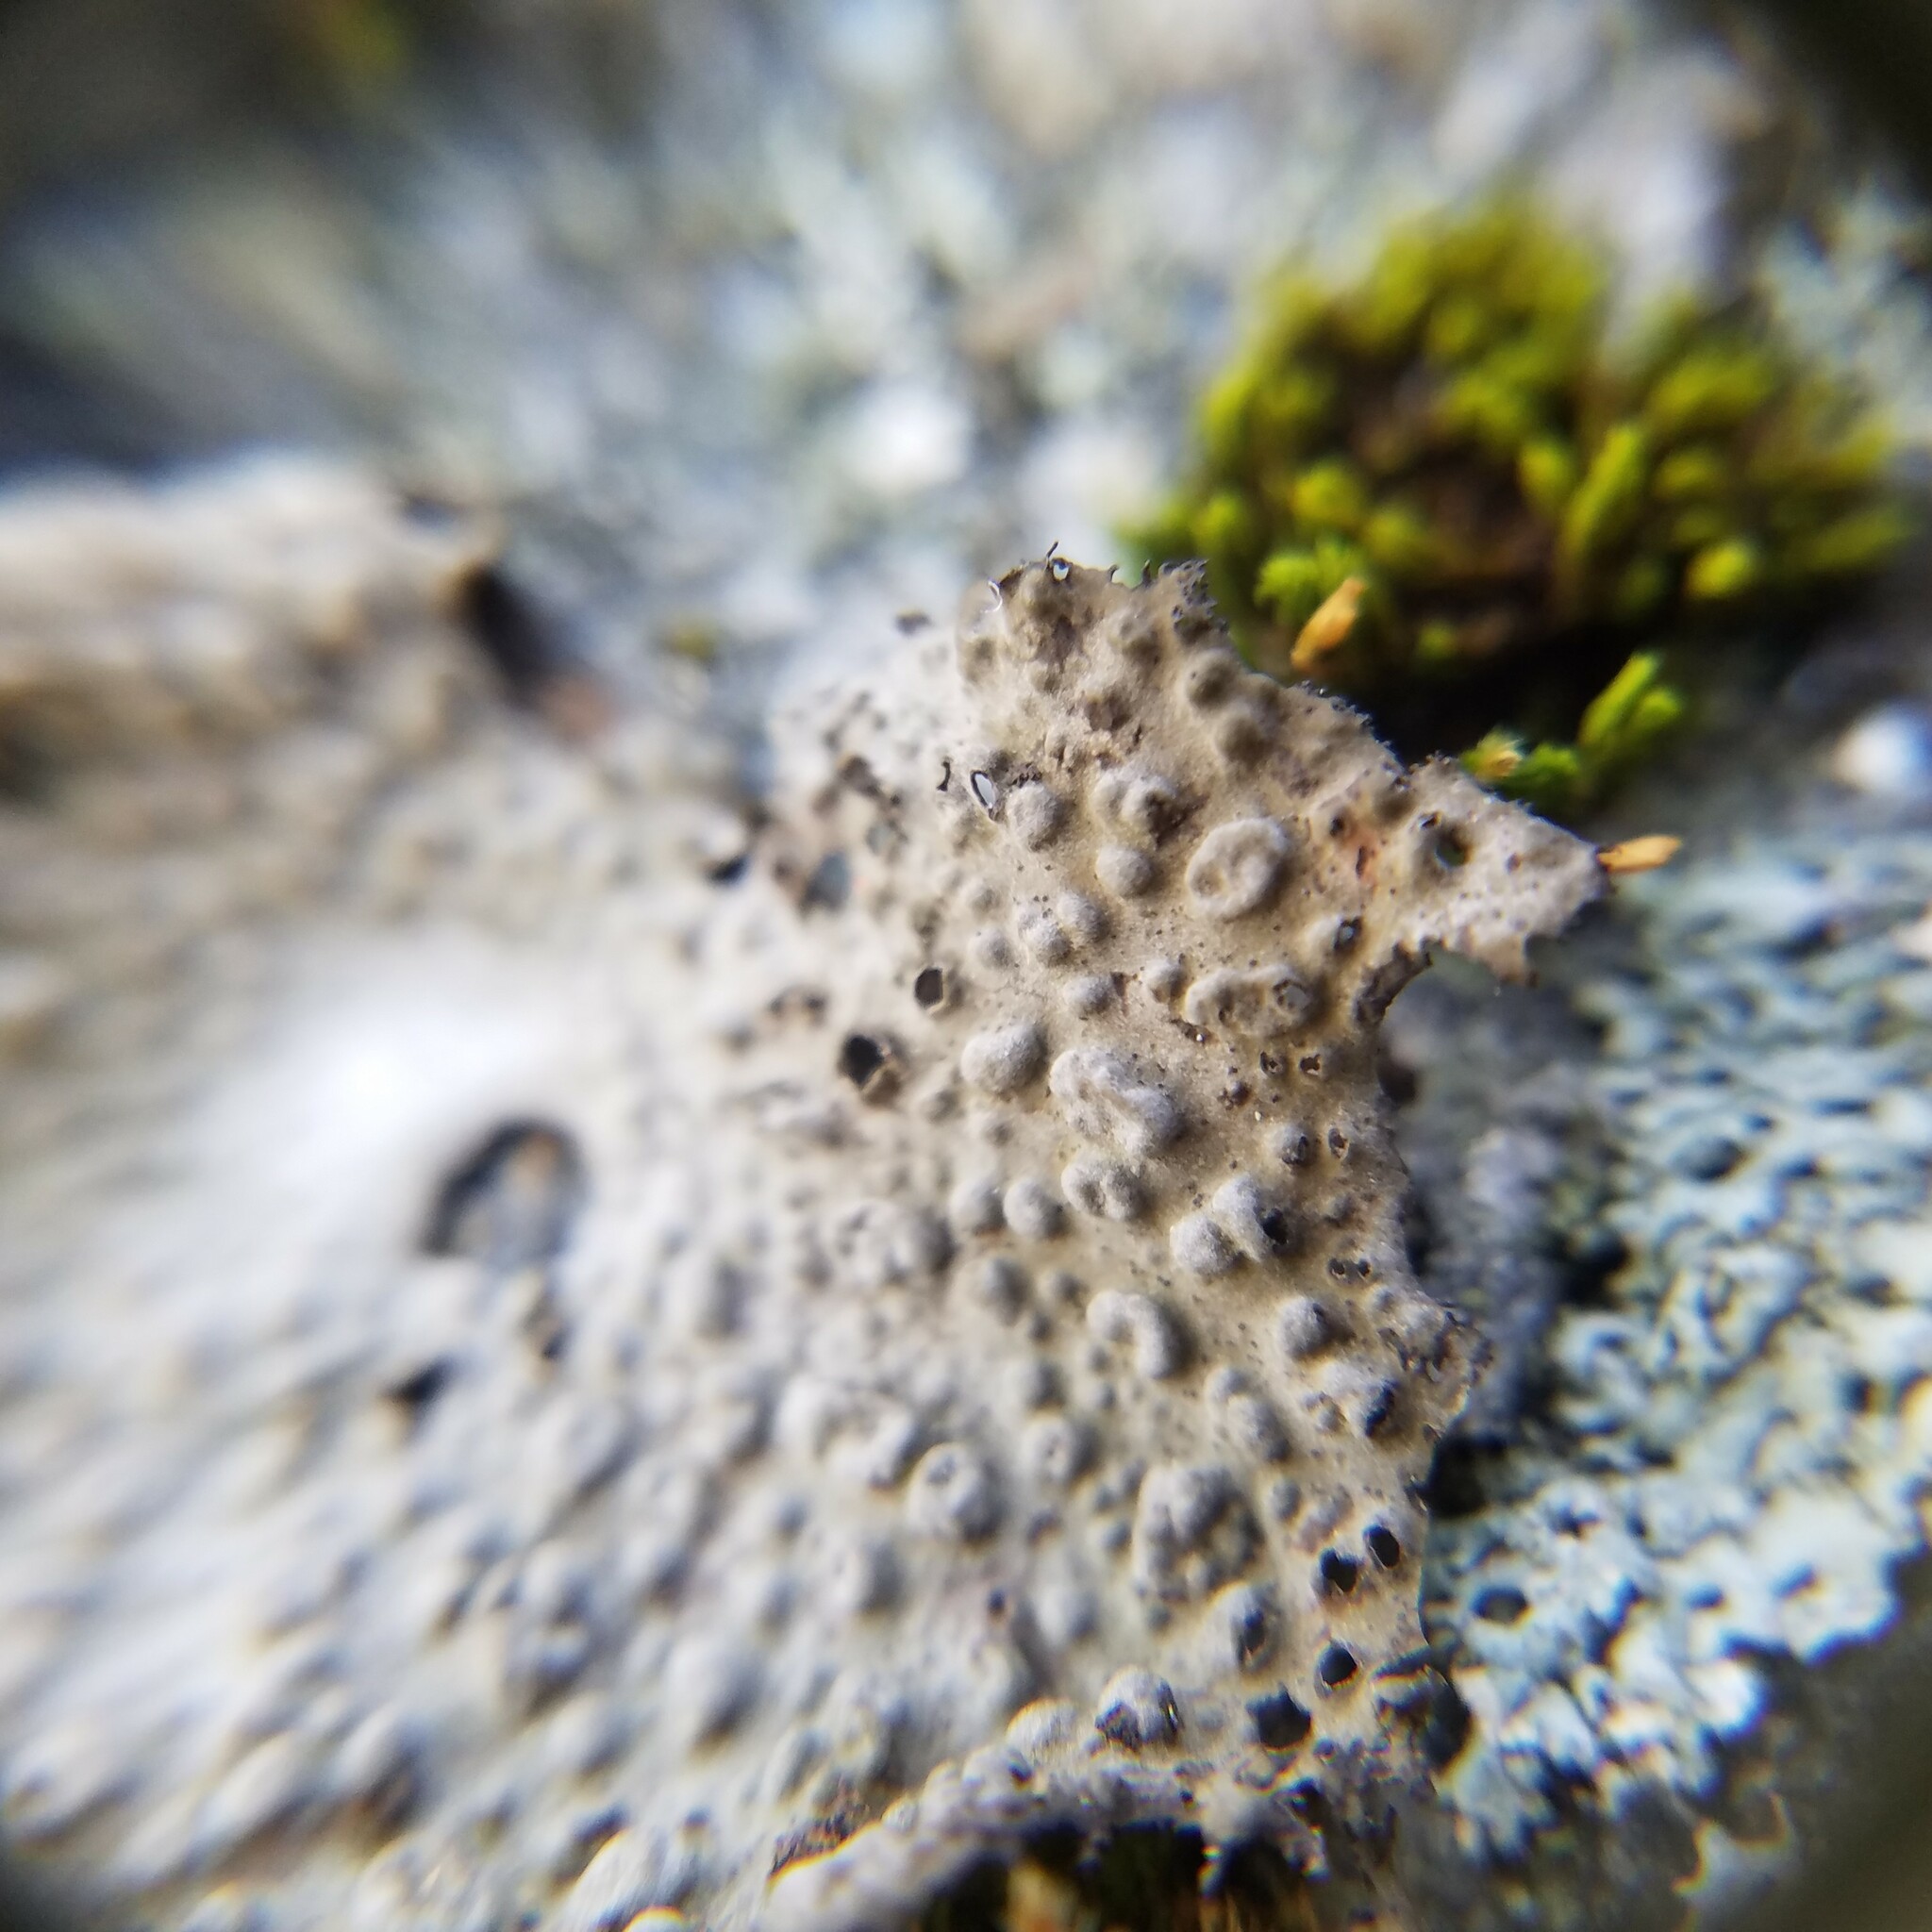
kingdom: Fungi
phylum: Ascomycota
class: Lecanoromycetes
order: Umbilicariales
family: Umbilicariaceae
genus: Lasallia
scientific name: Lasallia papulosa
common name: Common toadskin lichen
